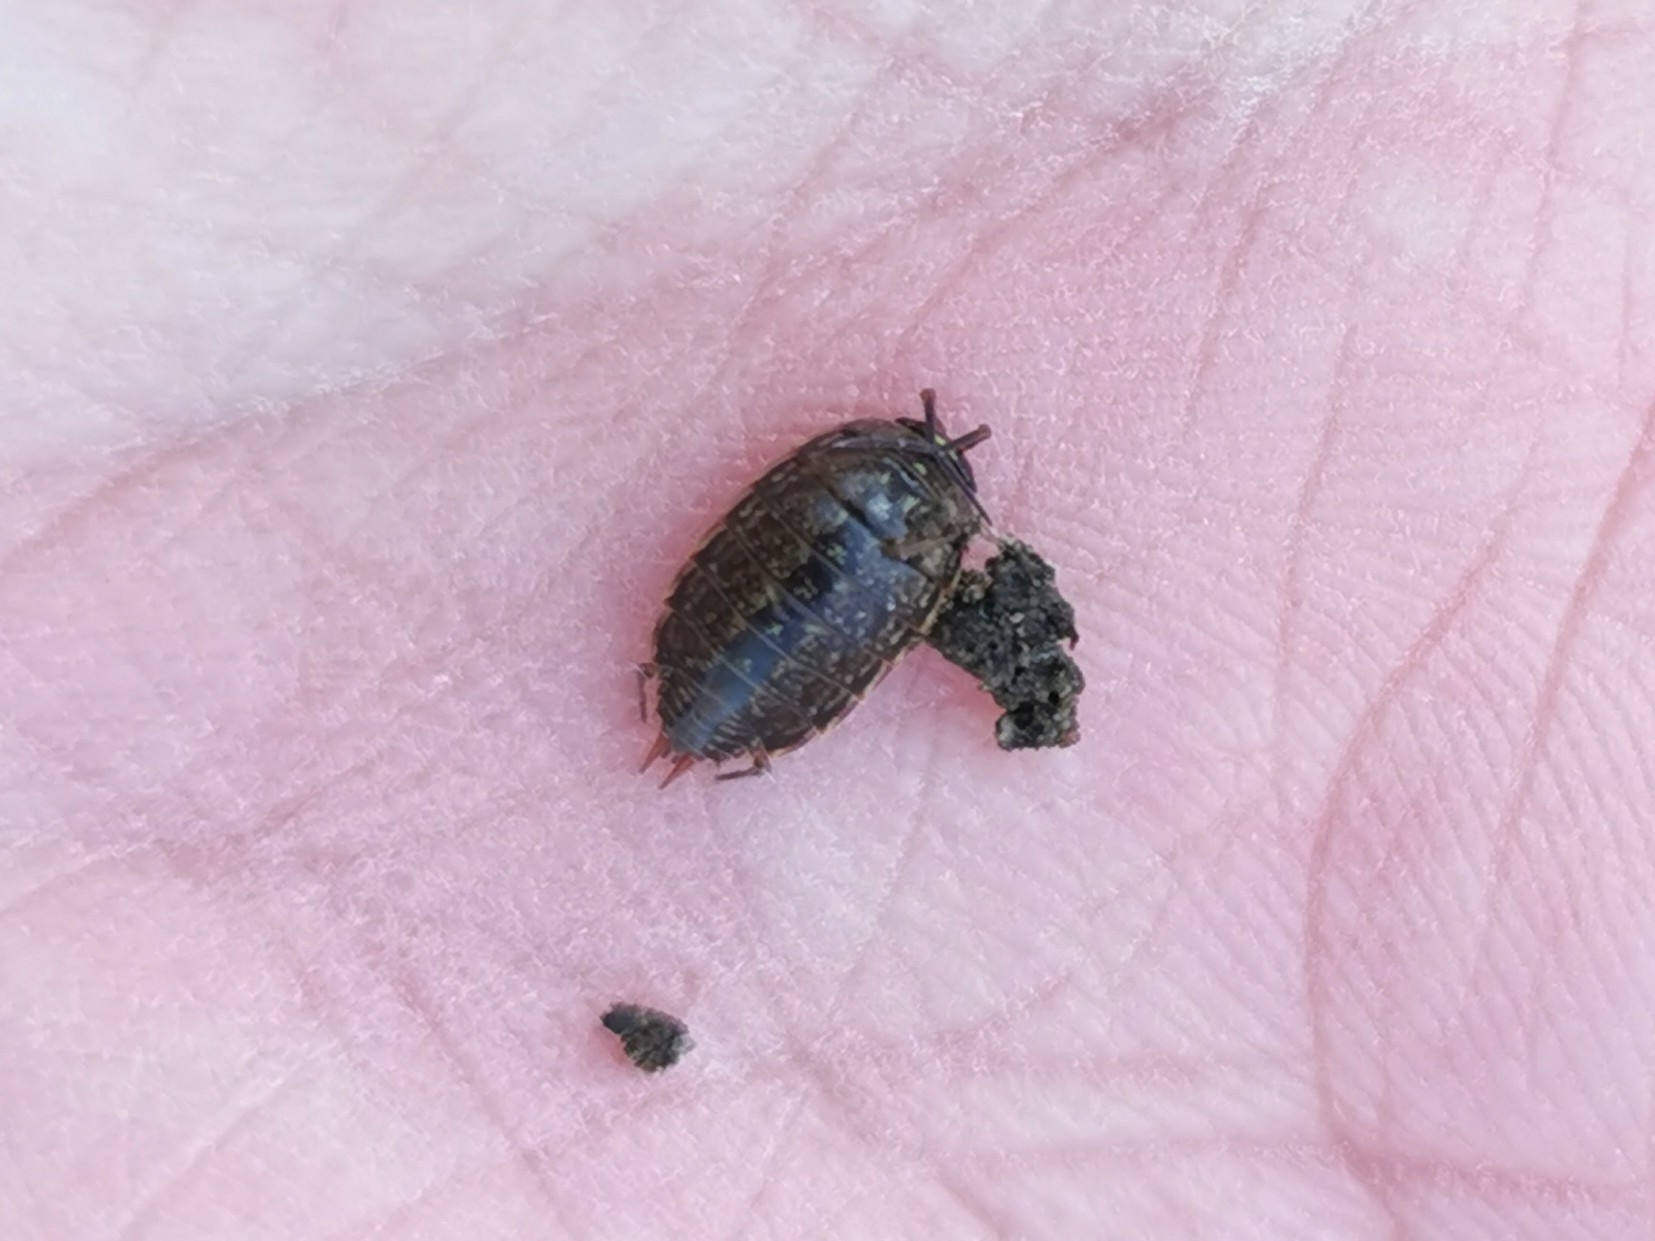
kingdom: Animalia
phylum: Arthropoda
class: Malacostraca
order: Isopoda
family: Philosciidae
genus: Philoscia
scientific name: Philoscia muscorum
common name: Common striped woodlouse
